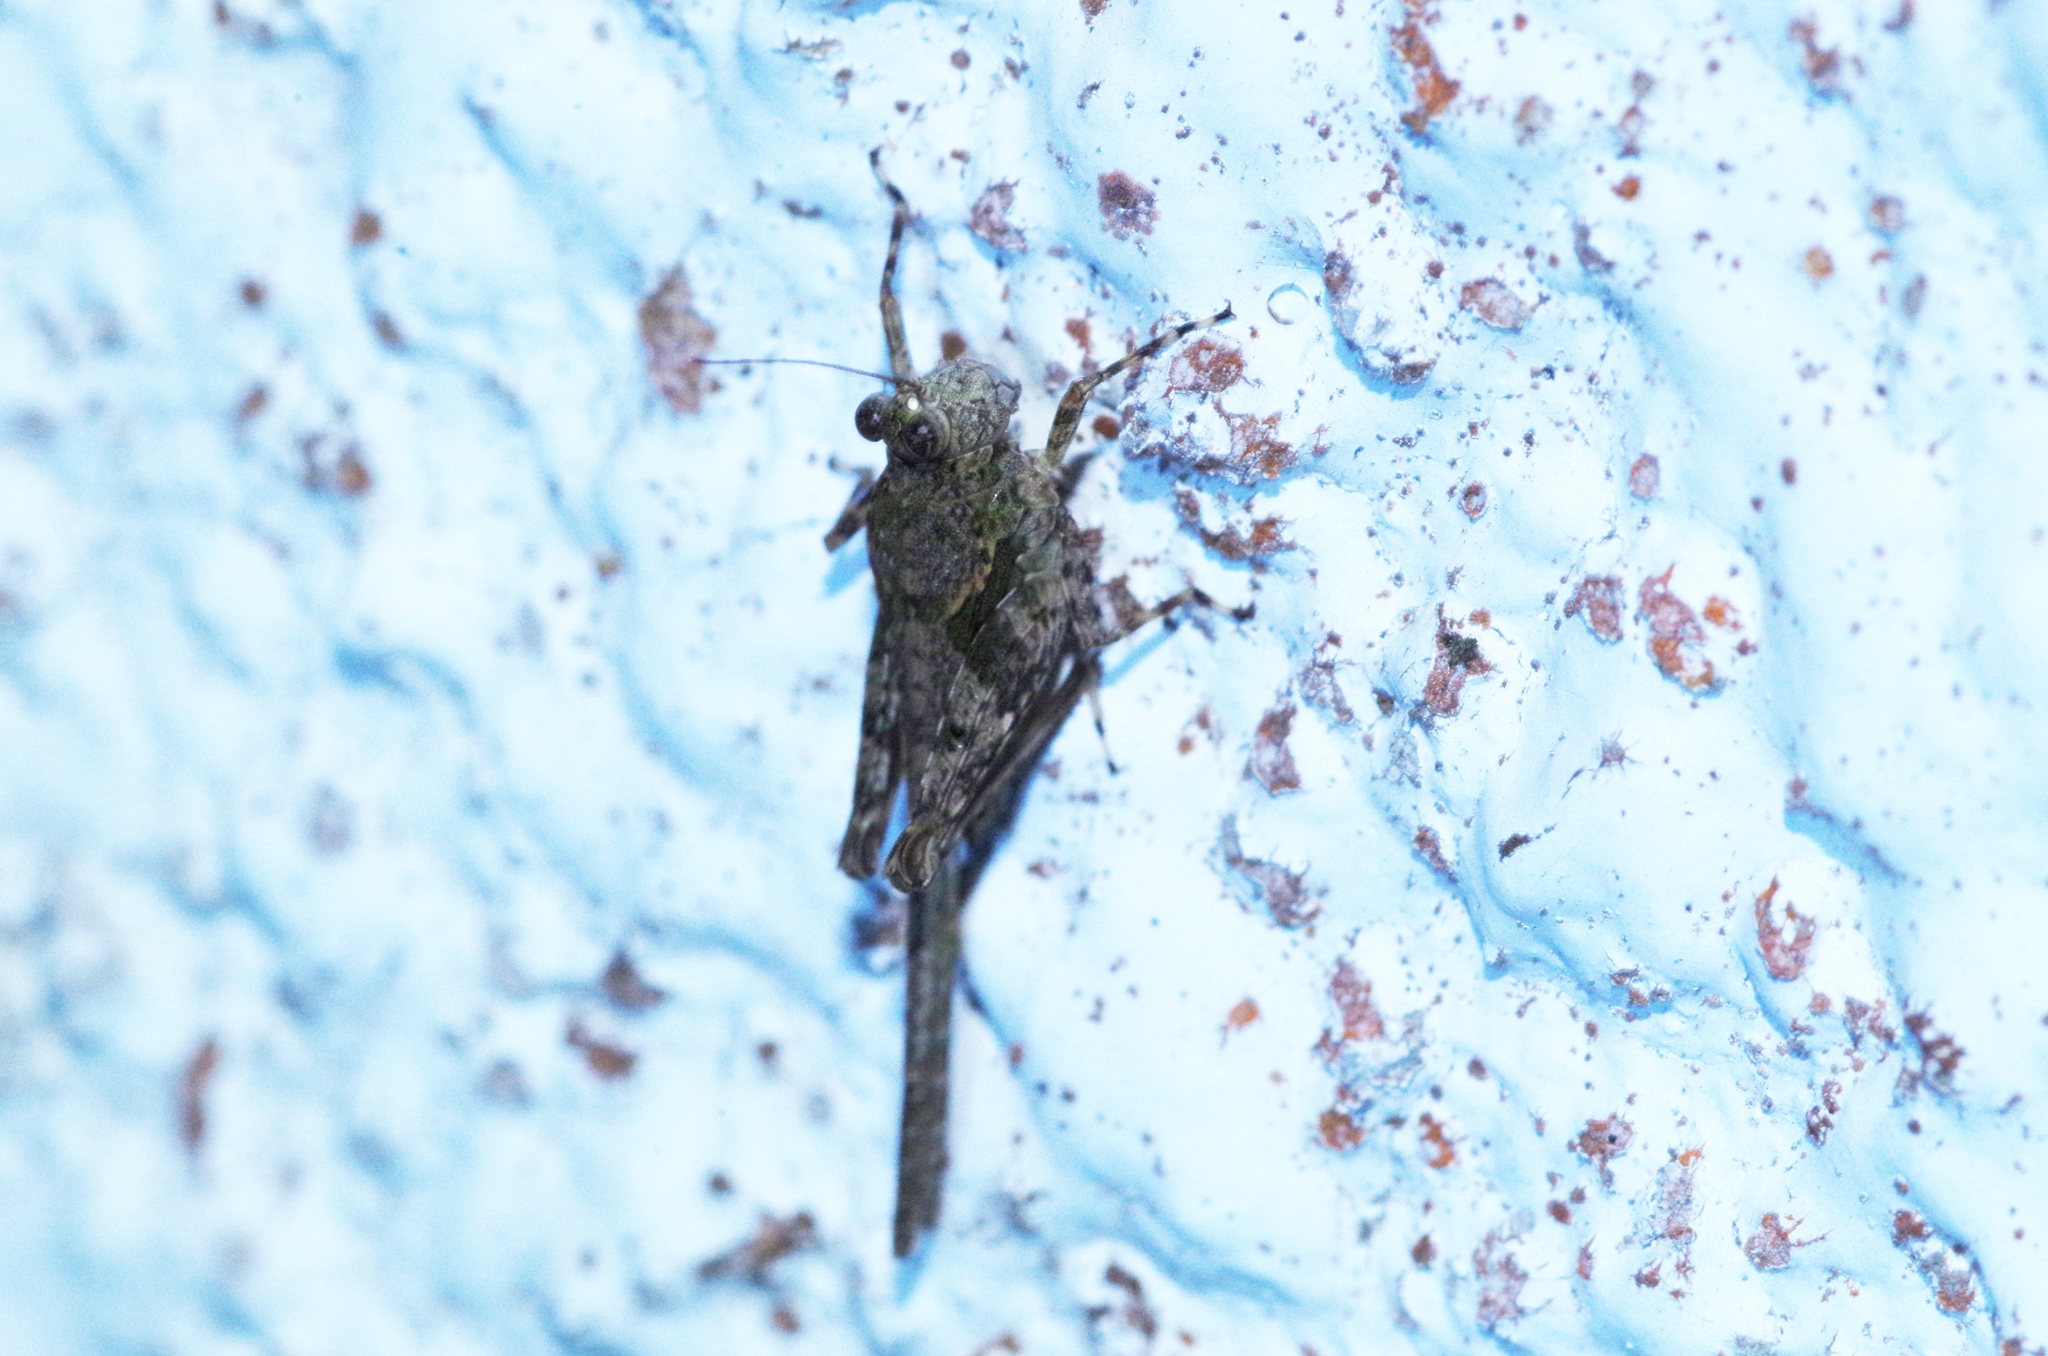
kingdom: Animalia
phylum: Arthropoda
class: Insecta
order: Orthoptera
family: Tetrigidae
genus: Paratettix
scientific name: Paratettix histricus
